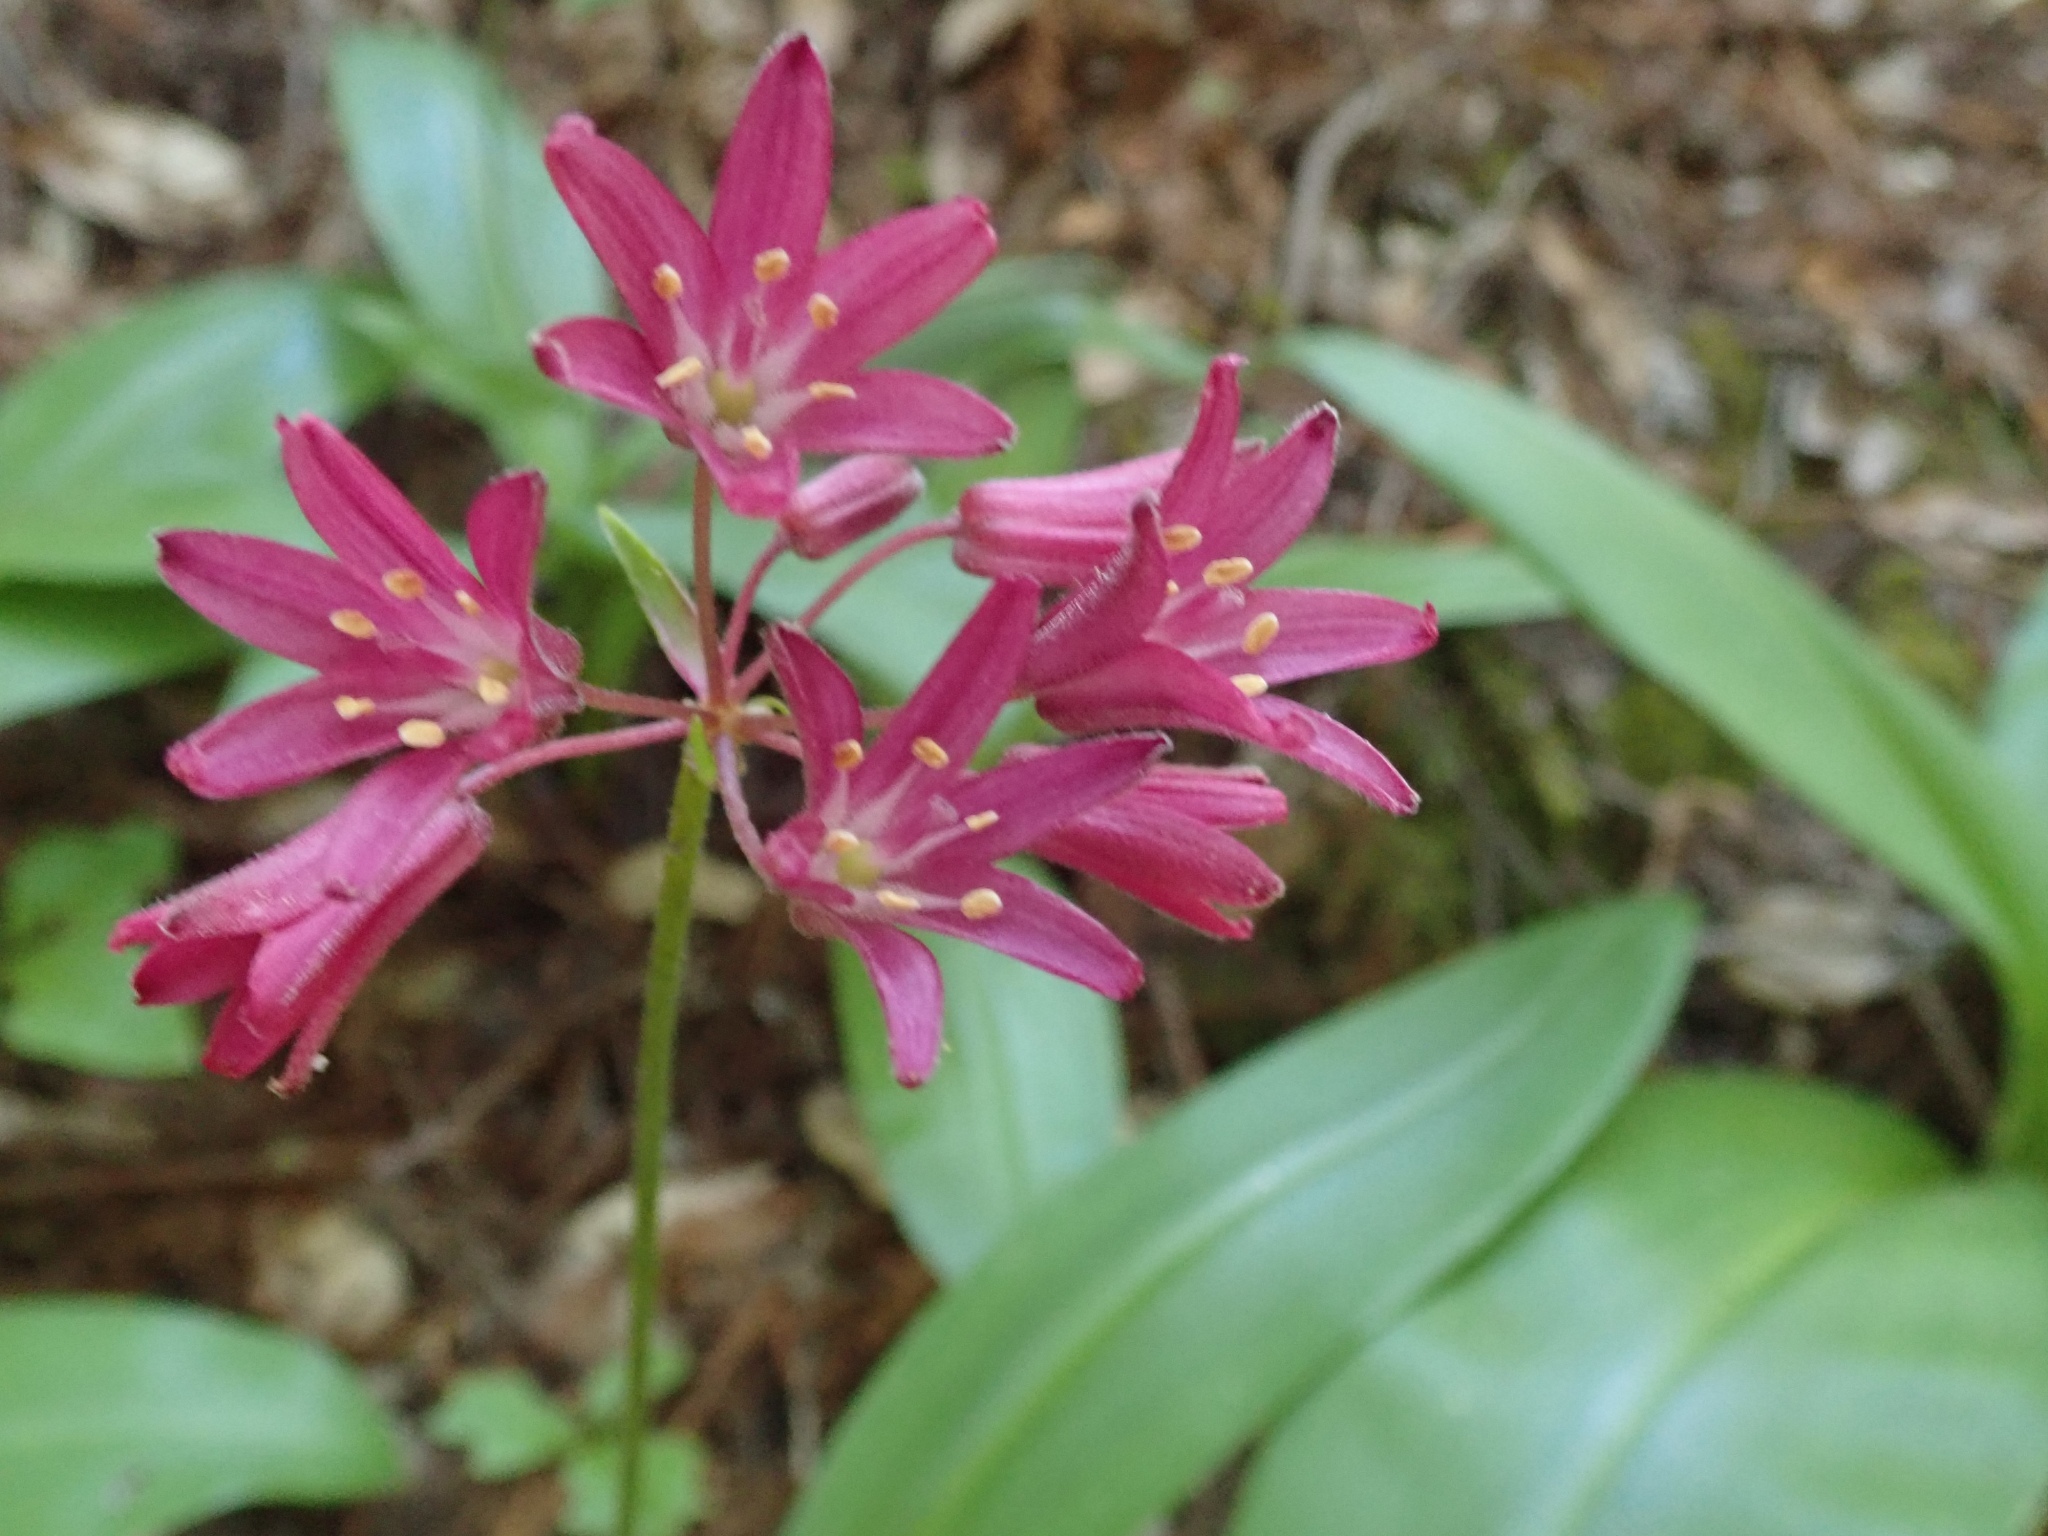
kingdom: Plantae
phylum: Tracheophyta
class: Liliopsida
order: Liliales
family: Liliaceae
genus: Clintonia
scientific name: Clintonia andrewsiana
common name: Red clintonia
